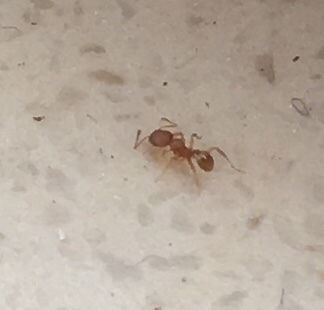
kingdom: Animalia
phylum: Arthropoda
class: Insecta
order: Hymenoptera
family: Formicidae
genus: Pheidole
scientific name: Pheidole navigans
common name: Navigating big-headed ant
